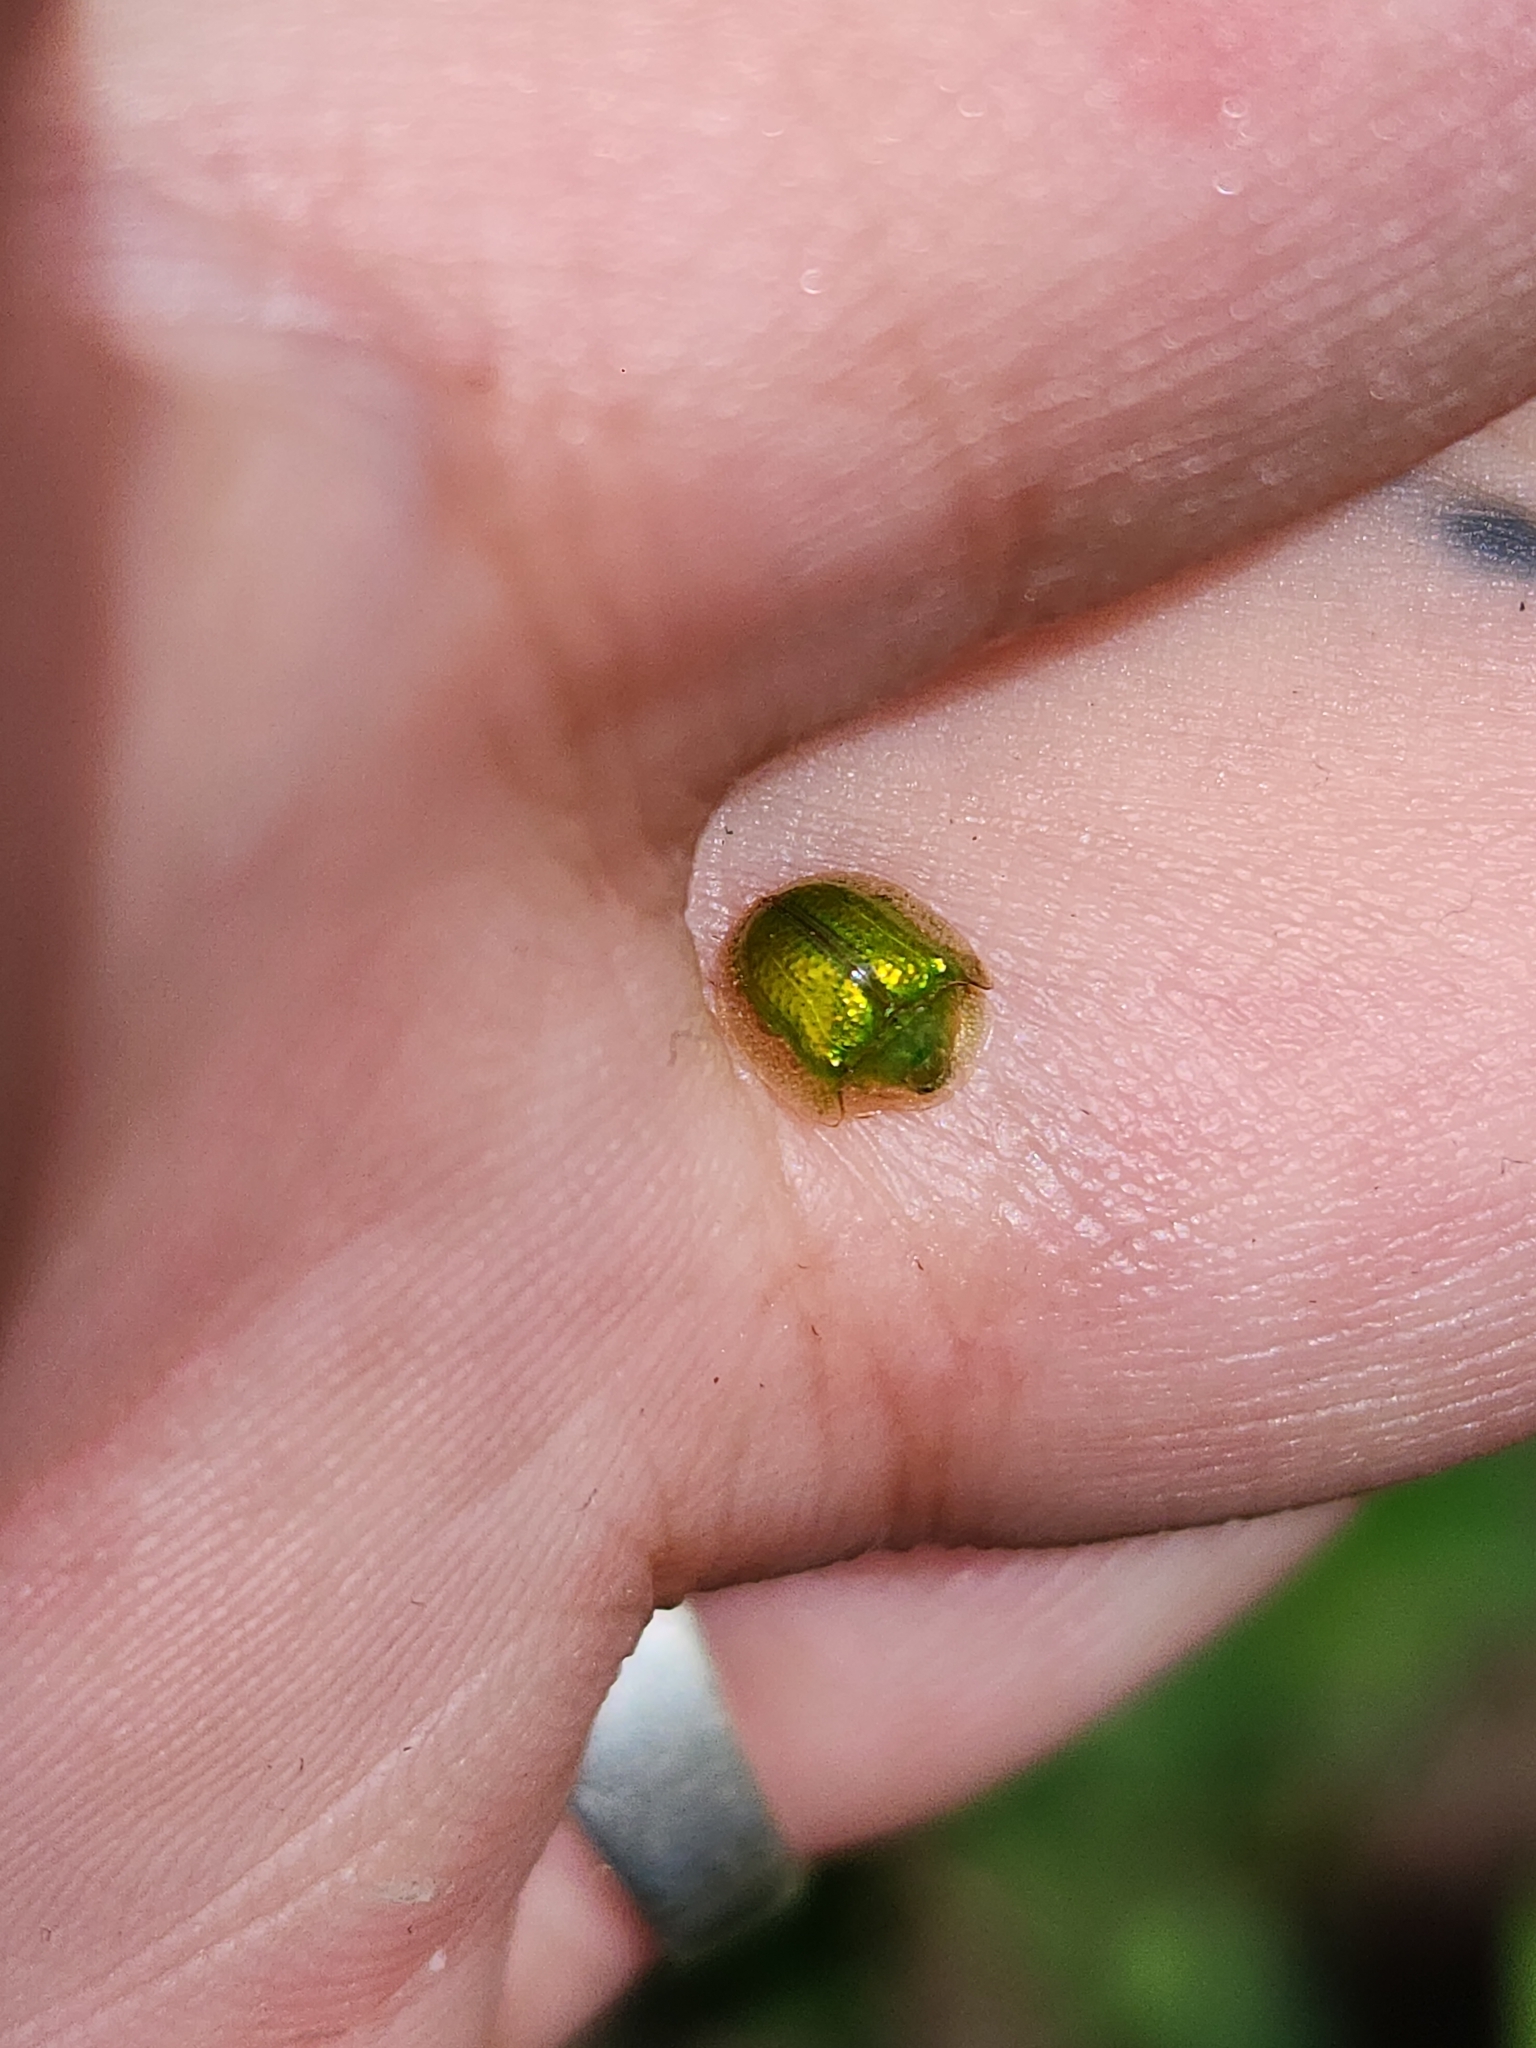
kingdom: Animalia
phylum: Arthropoda
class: Insecta
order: Coleoptera
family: Chrysomelidae
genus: Plagiometriona
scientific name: Plagiometriona herbea
